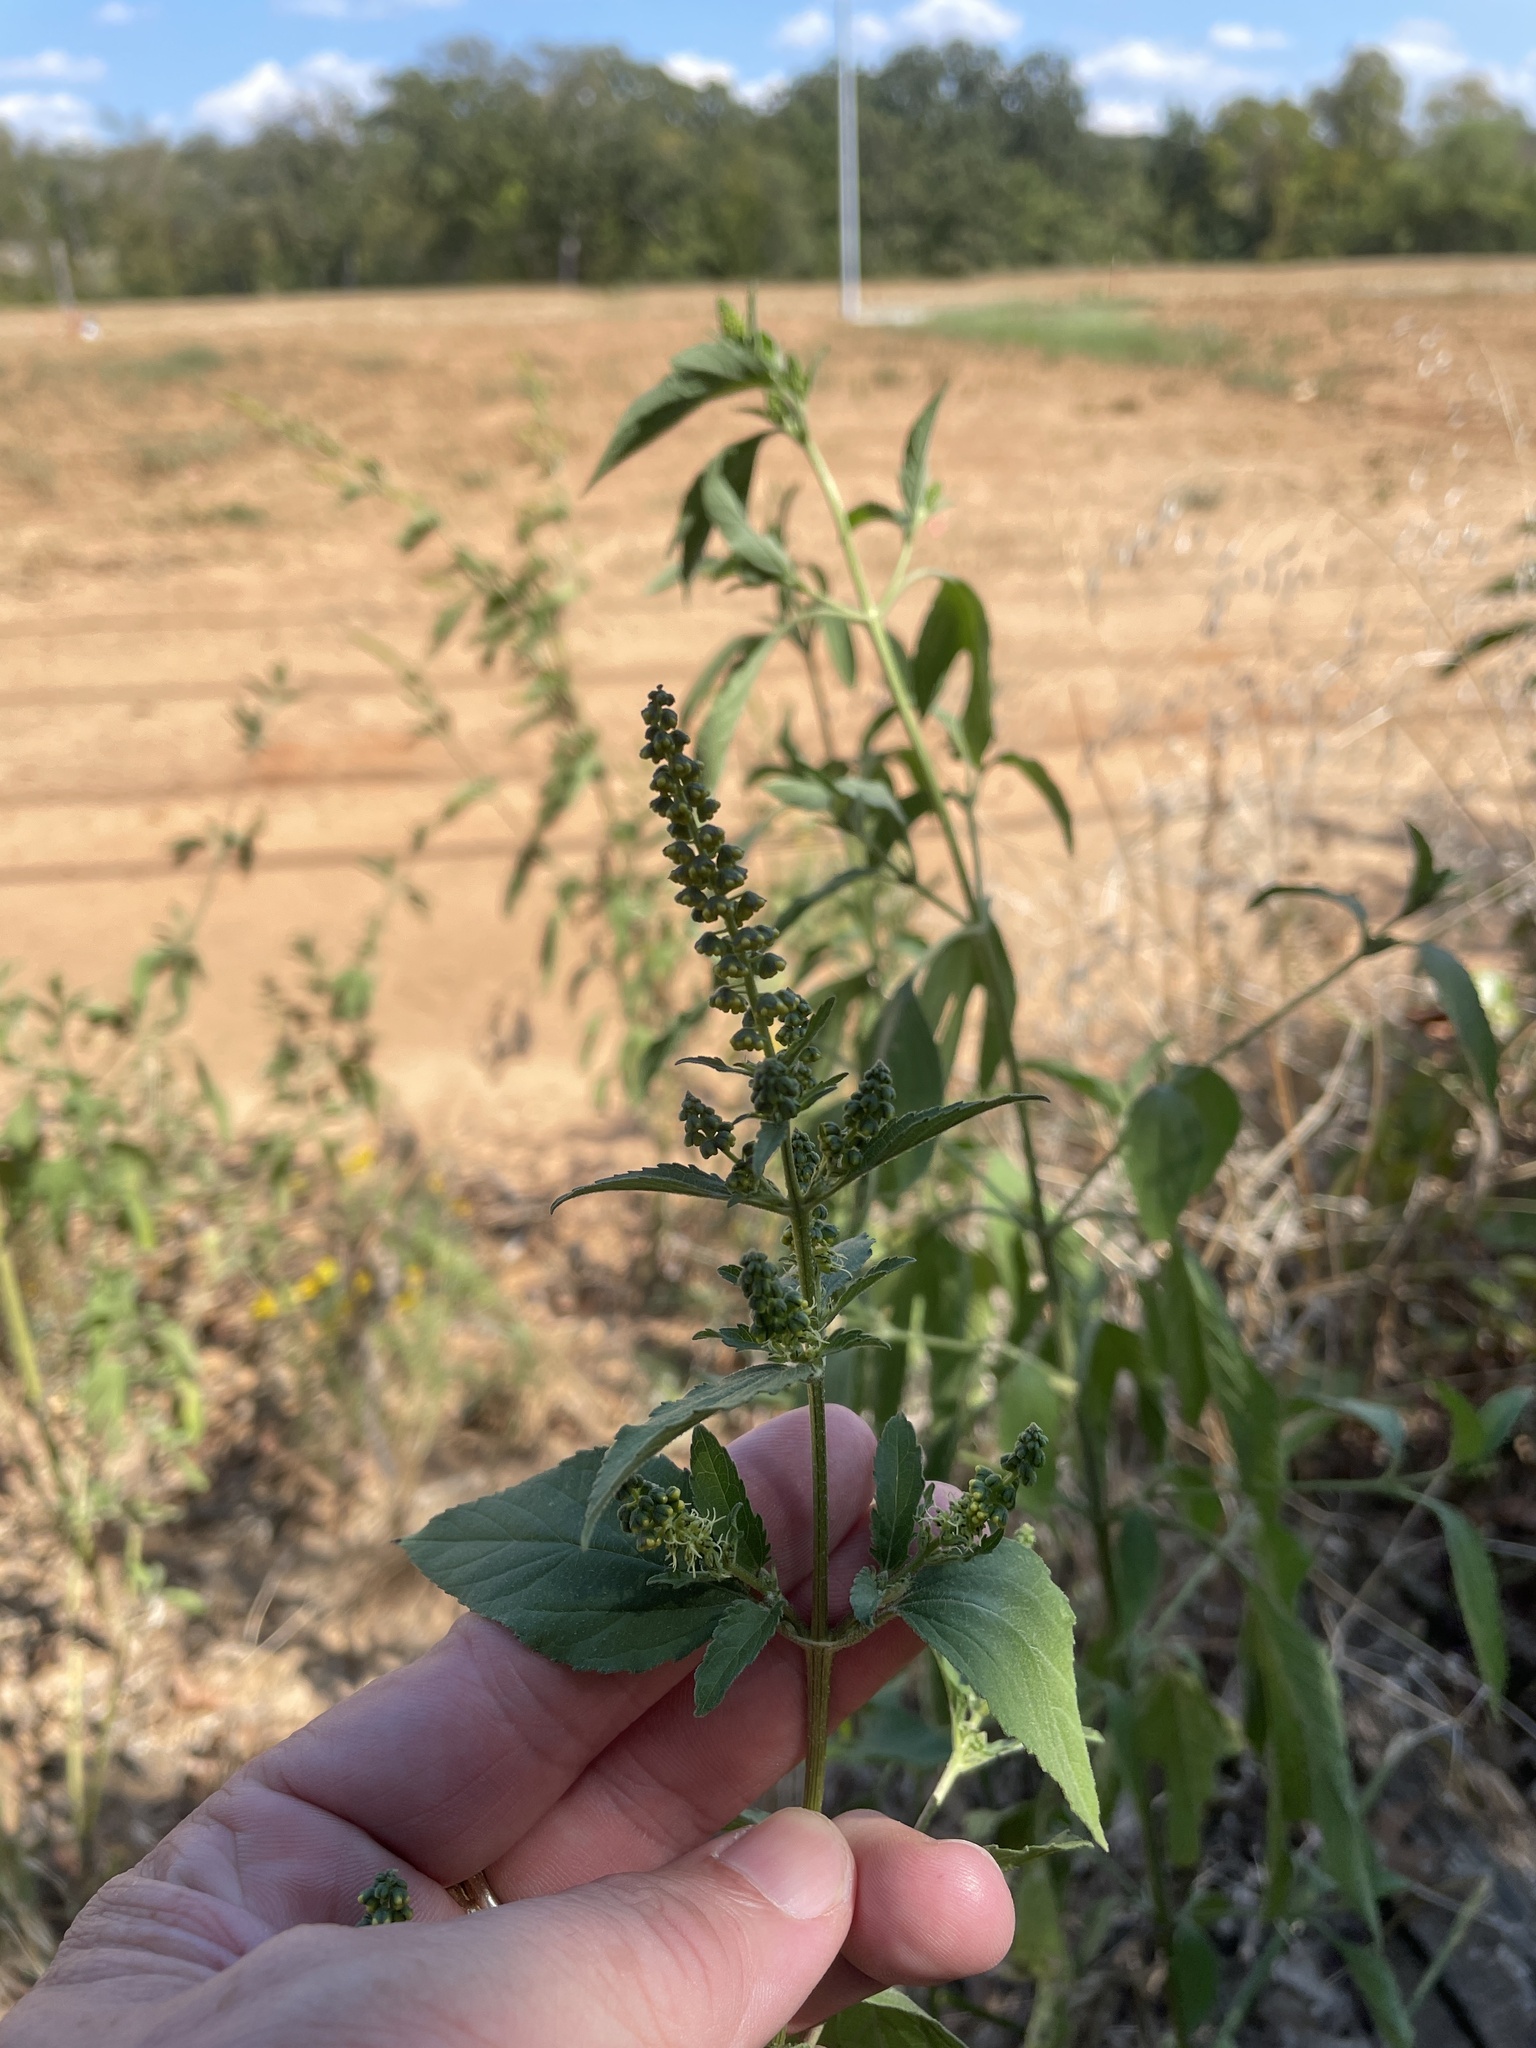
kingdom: Plantae
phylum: Tracheophyta
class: Magnoliopsida
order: Asterales
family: Asteraceae
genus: Ambrosia
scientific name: Ambrosia trifida
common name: Giant ragweed
